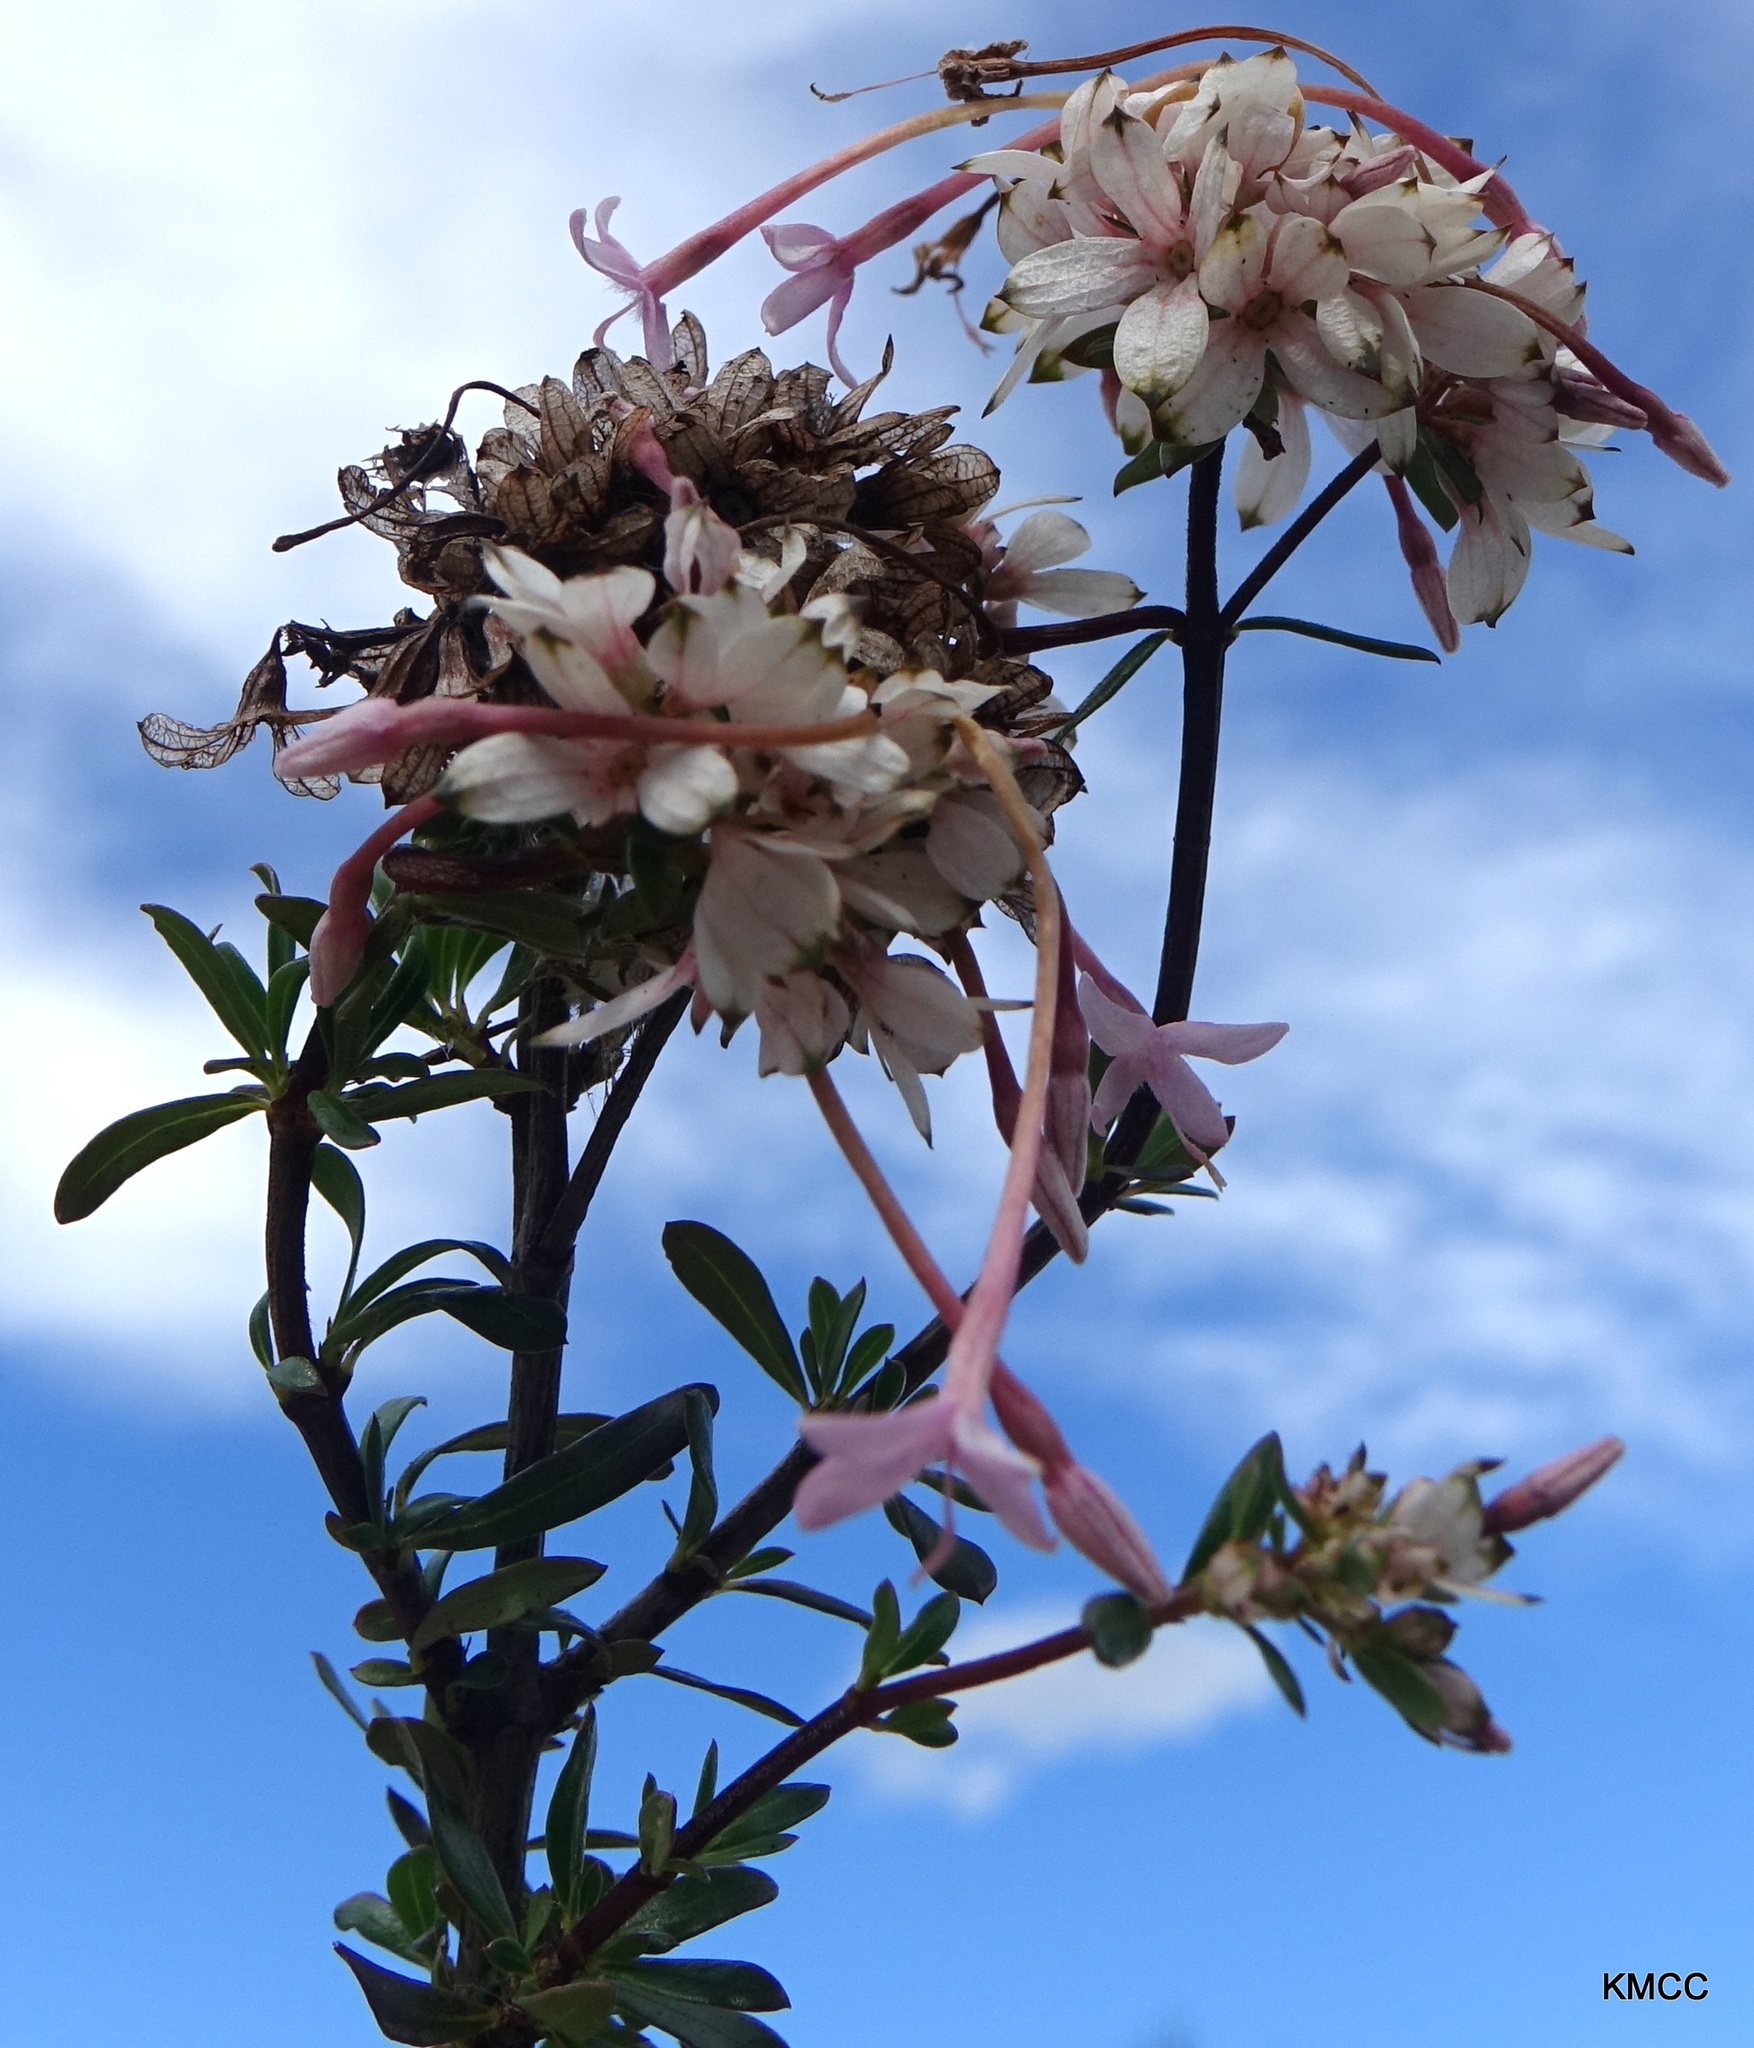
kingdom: Plantae
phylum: Tracheophyta
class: Magnoliopsida
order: Gentianales
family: Rubiaceae
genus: Carphalea
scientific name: Carphalea madagascariensis
